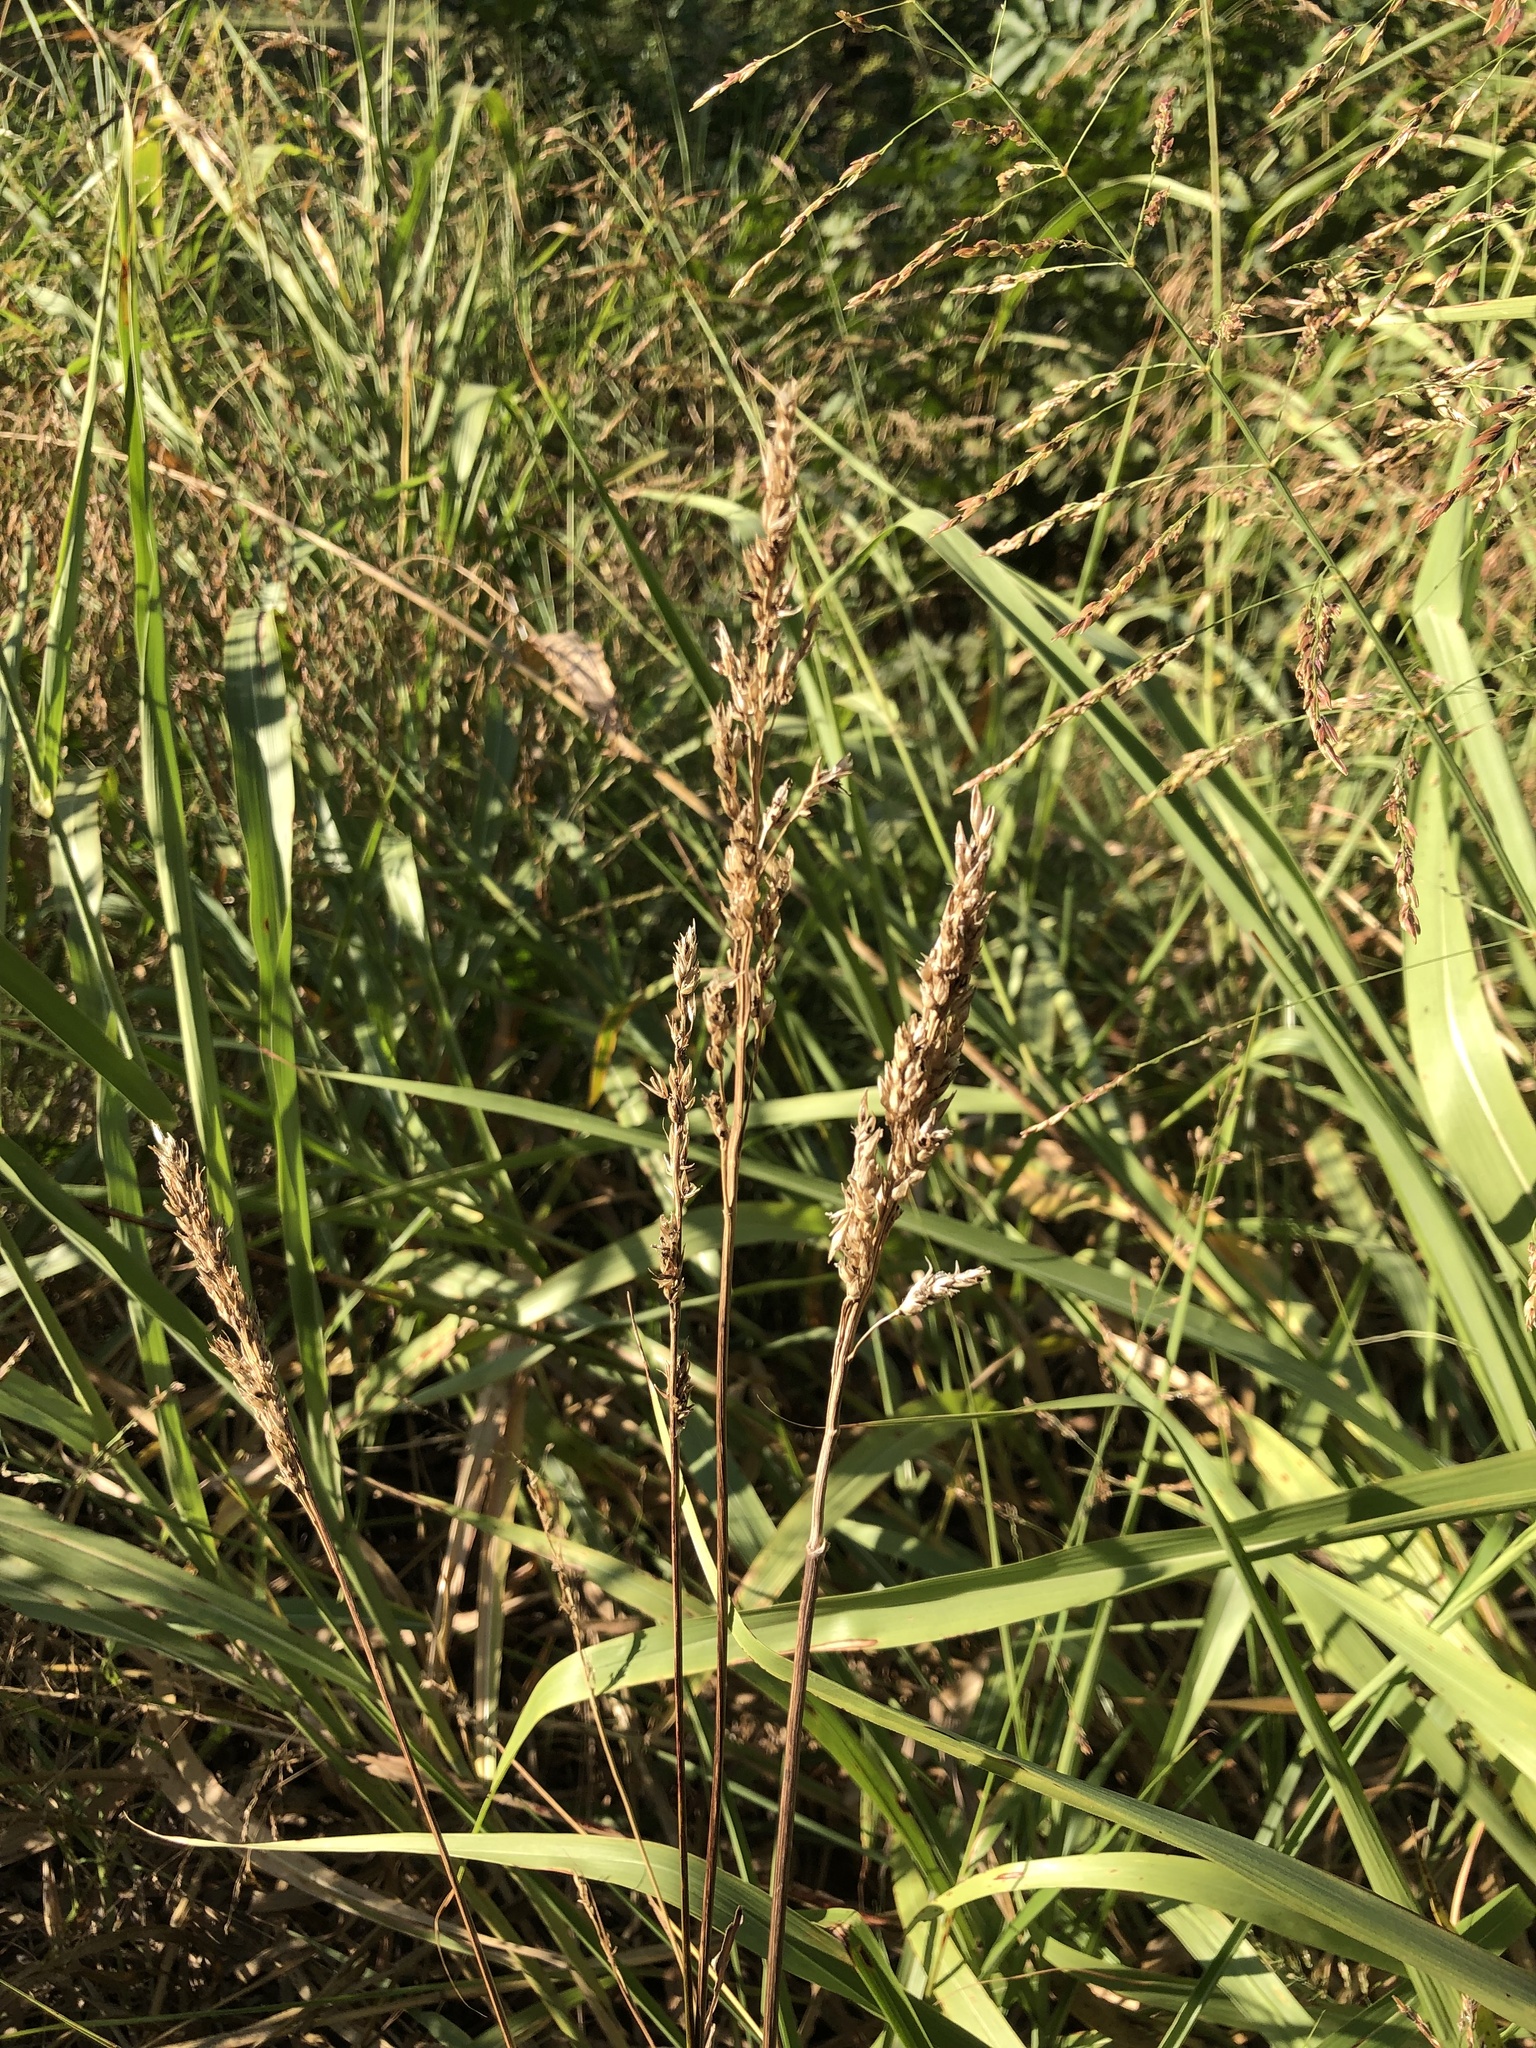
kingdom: Plantae
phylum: Tracheophyta
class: Liliopsida
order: Poales
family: Poaceae
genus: Sorghum
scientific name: Sorghum halepense
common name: Johnson-grass
